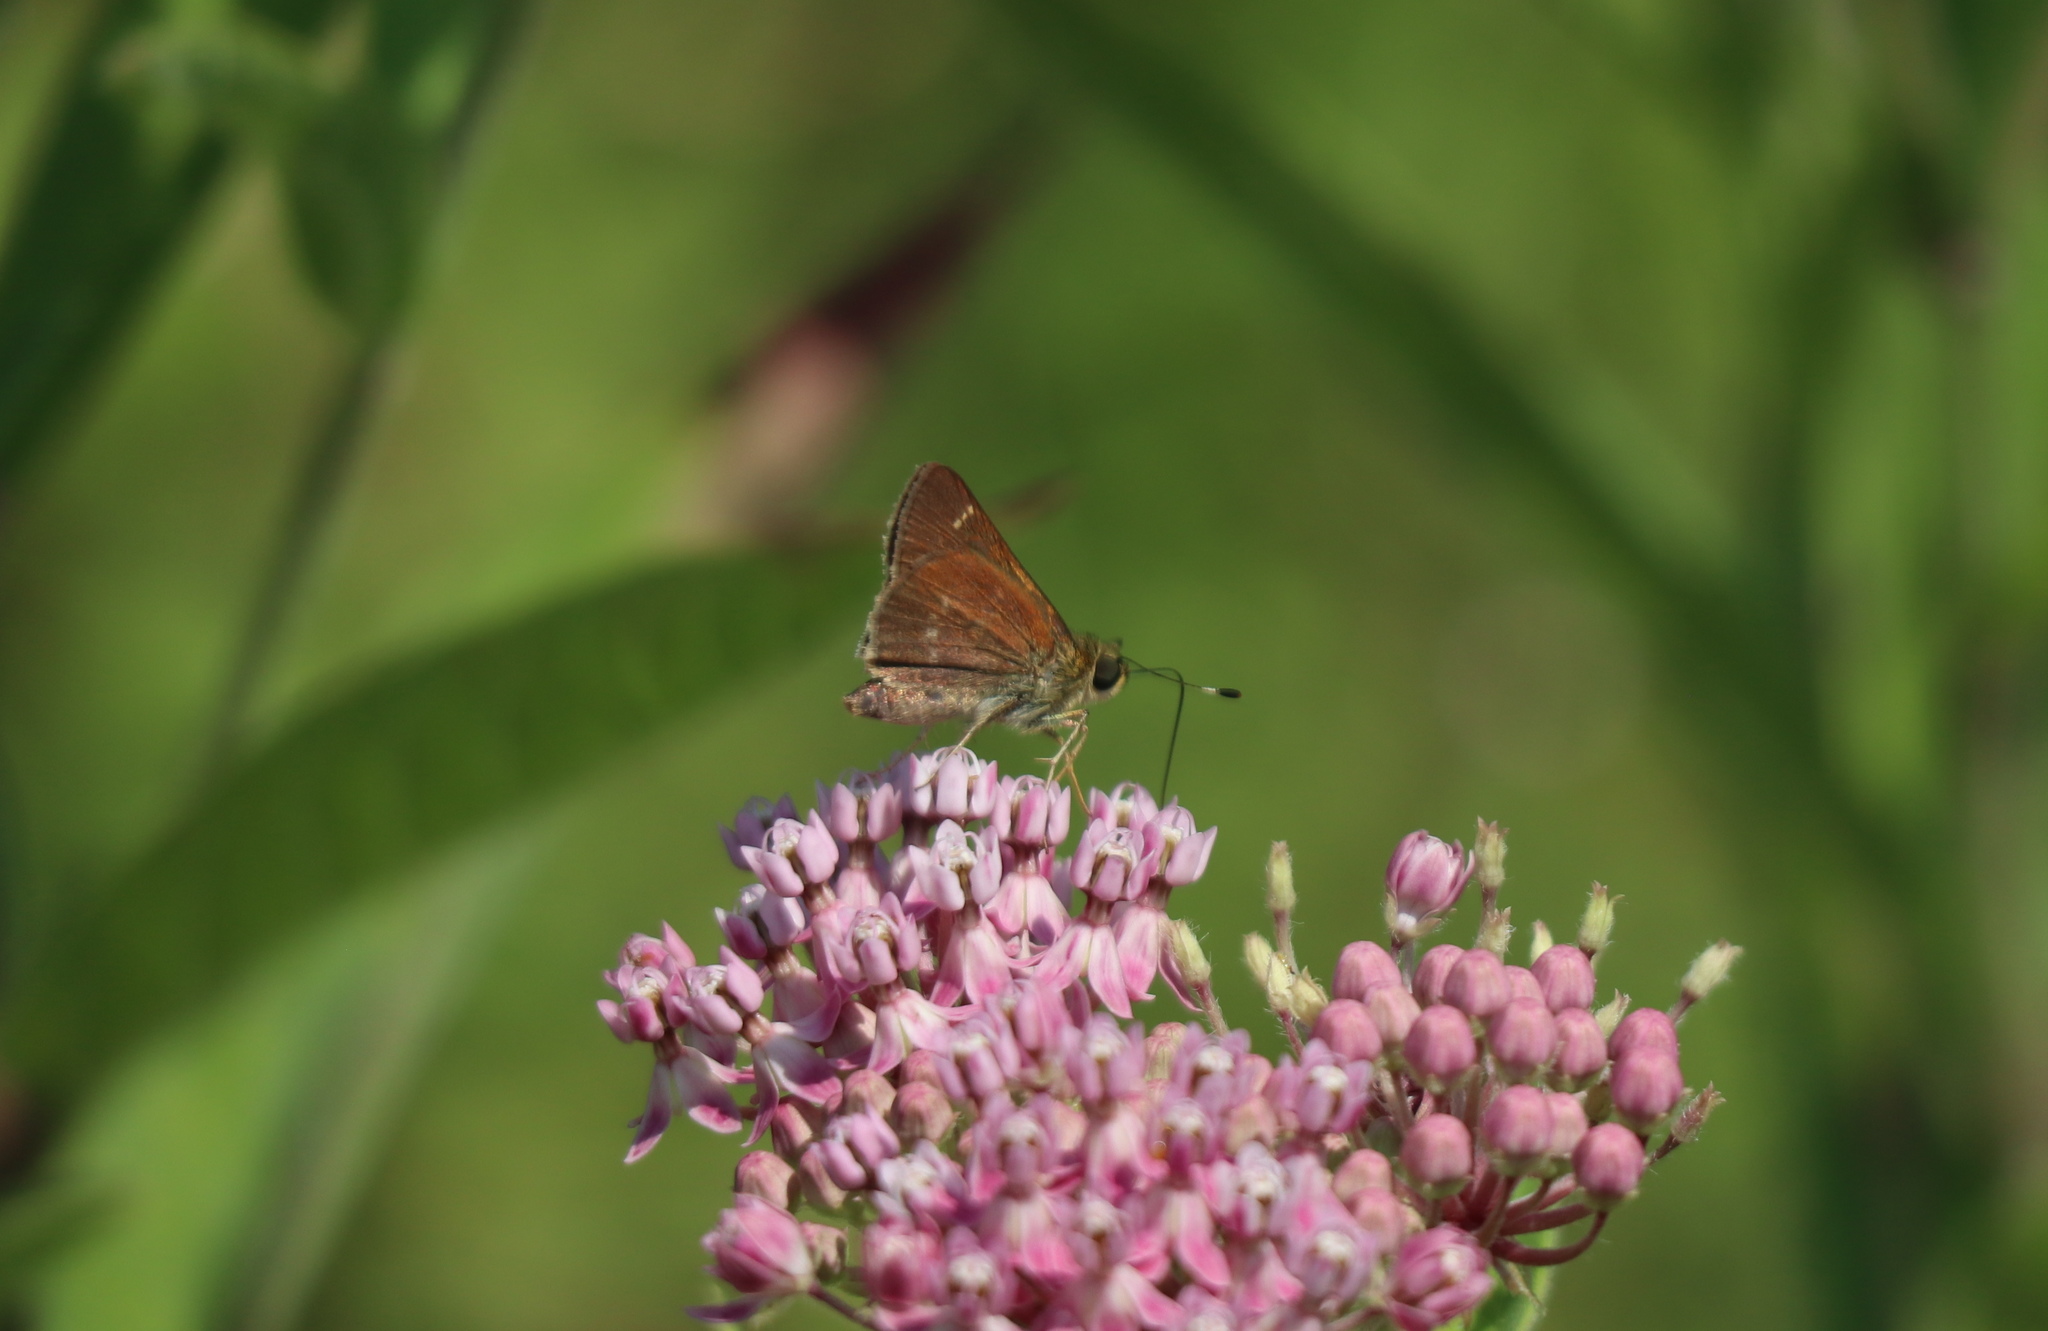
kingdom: Animalia
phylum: Arthropoda
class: Insecta
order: Lepidoptera
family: Hesperiidae
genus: Vernia
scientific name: Vernia verna
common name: Little glassywing
